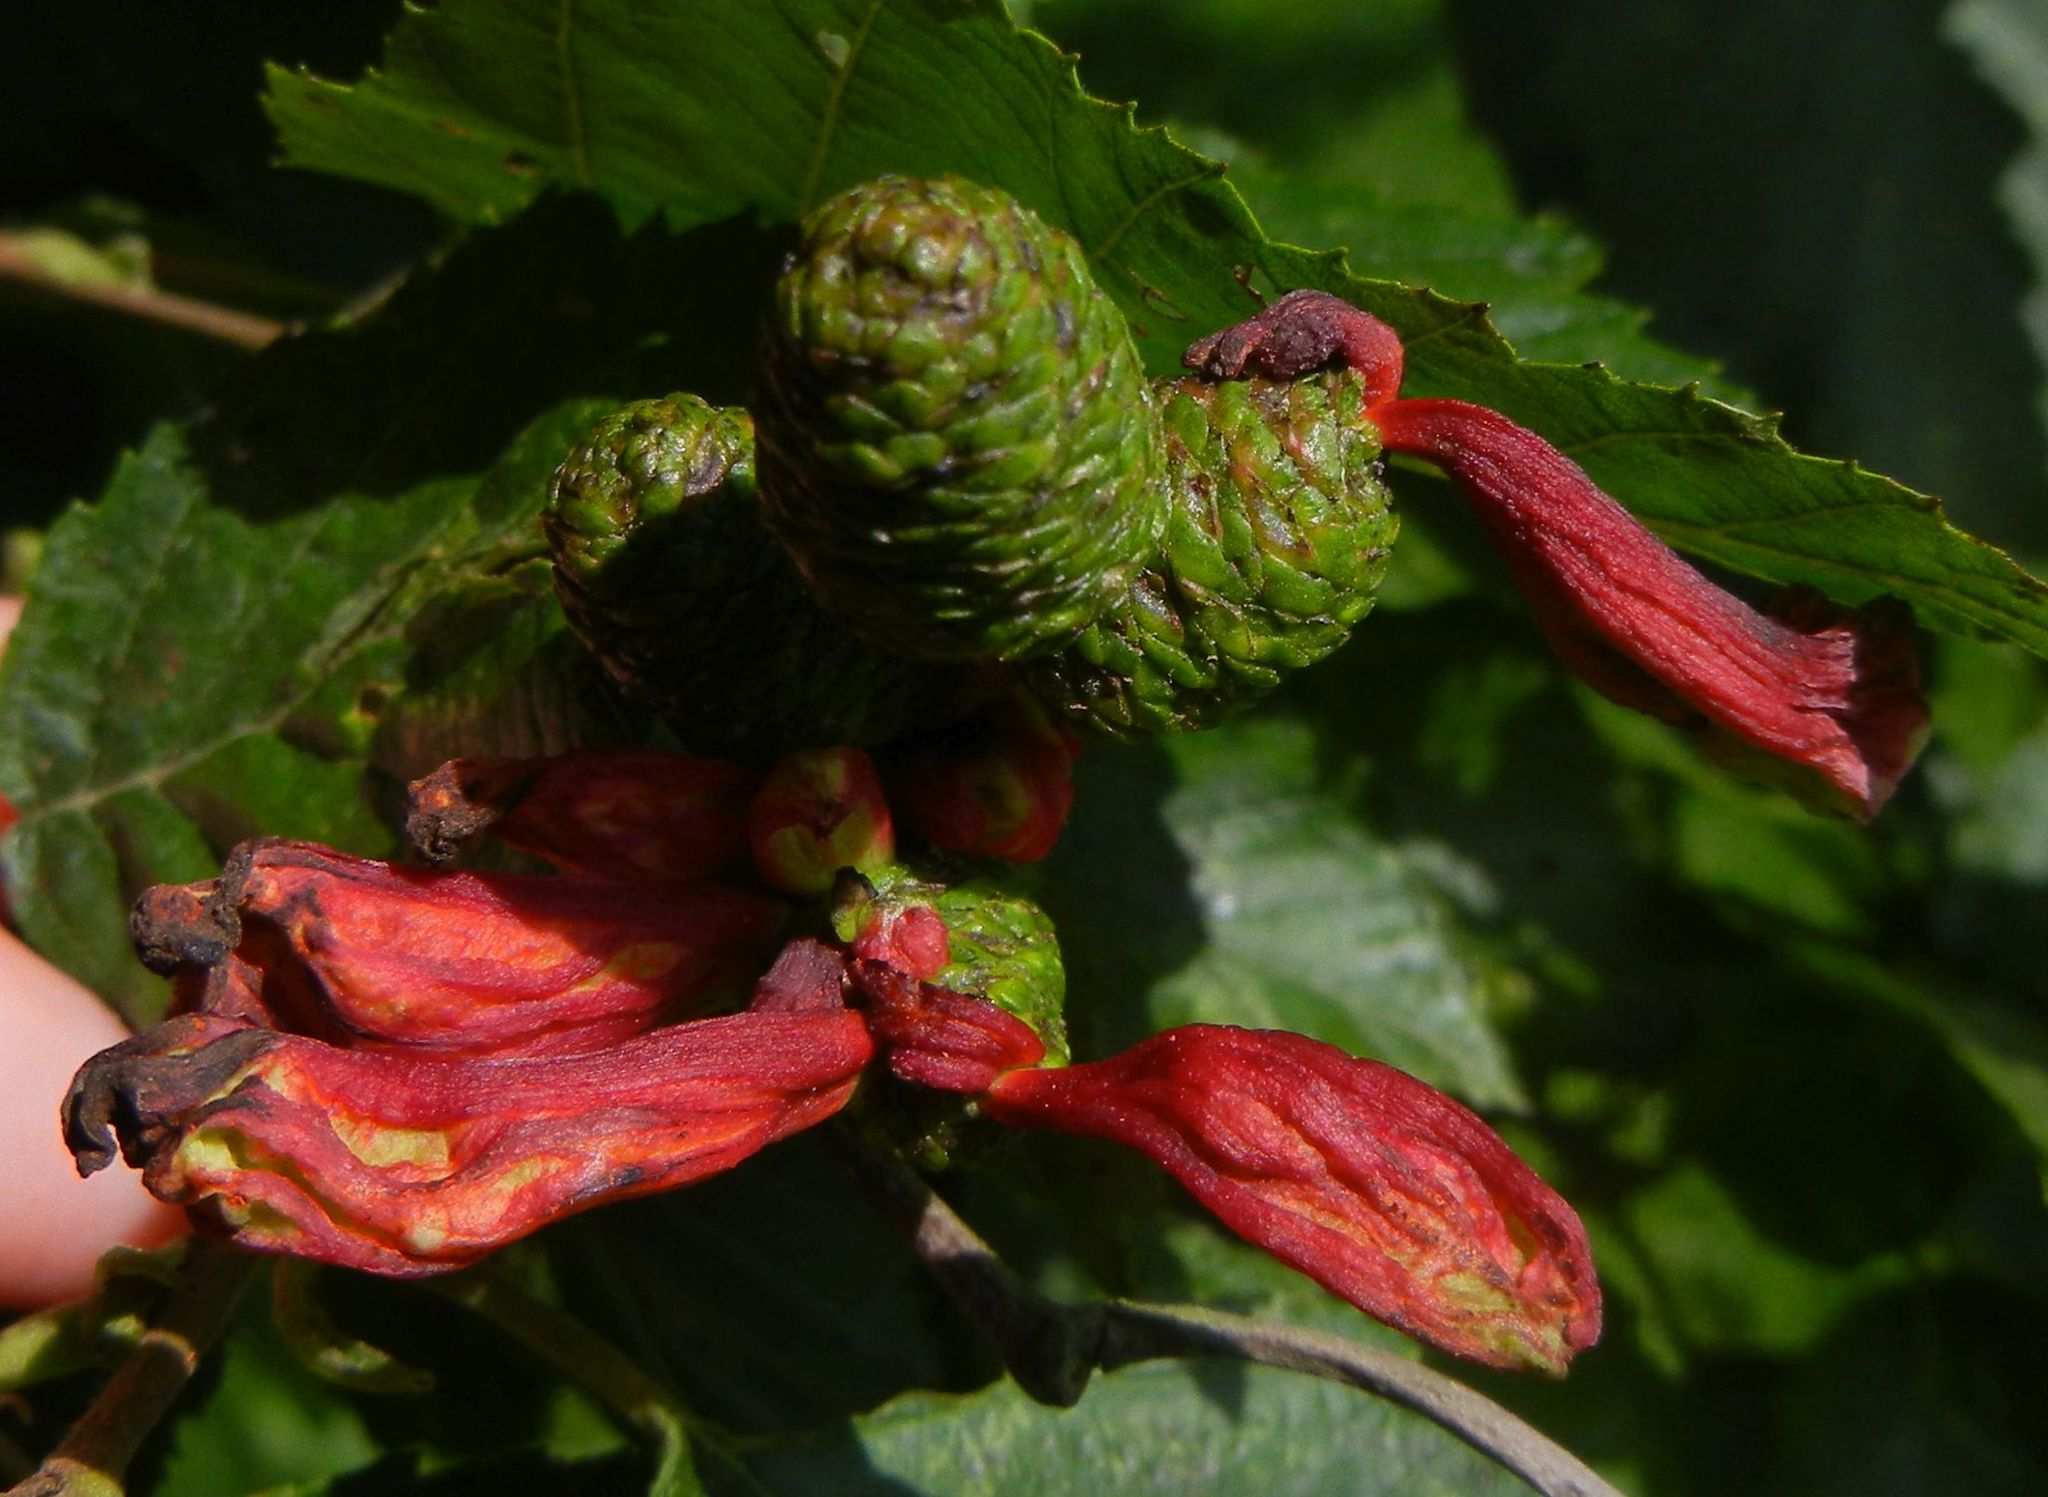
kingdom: Fungi
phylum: Ascomycota
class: Taphrinomycetes
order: Taphrinales
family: Taphrinaceae
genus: Taphrina
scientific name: Taphrina alni
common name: Alder tongue
